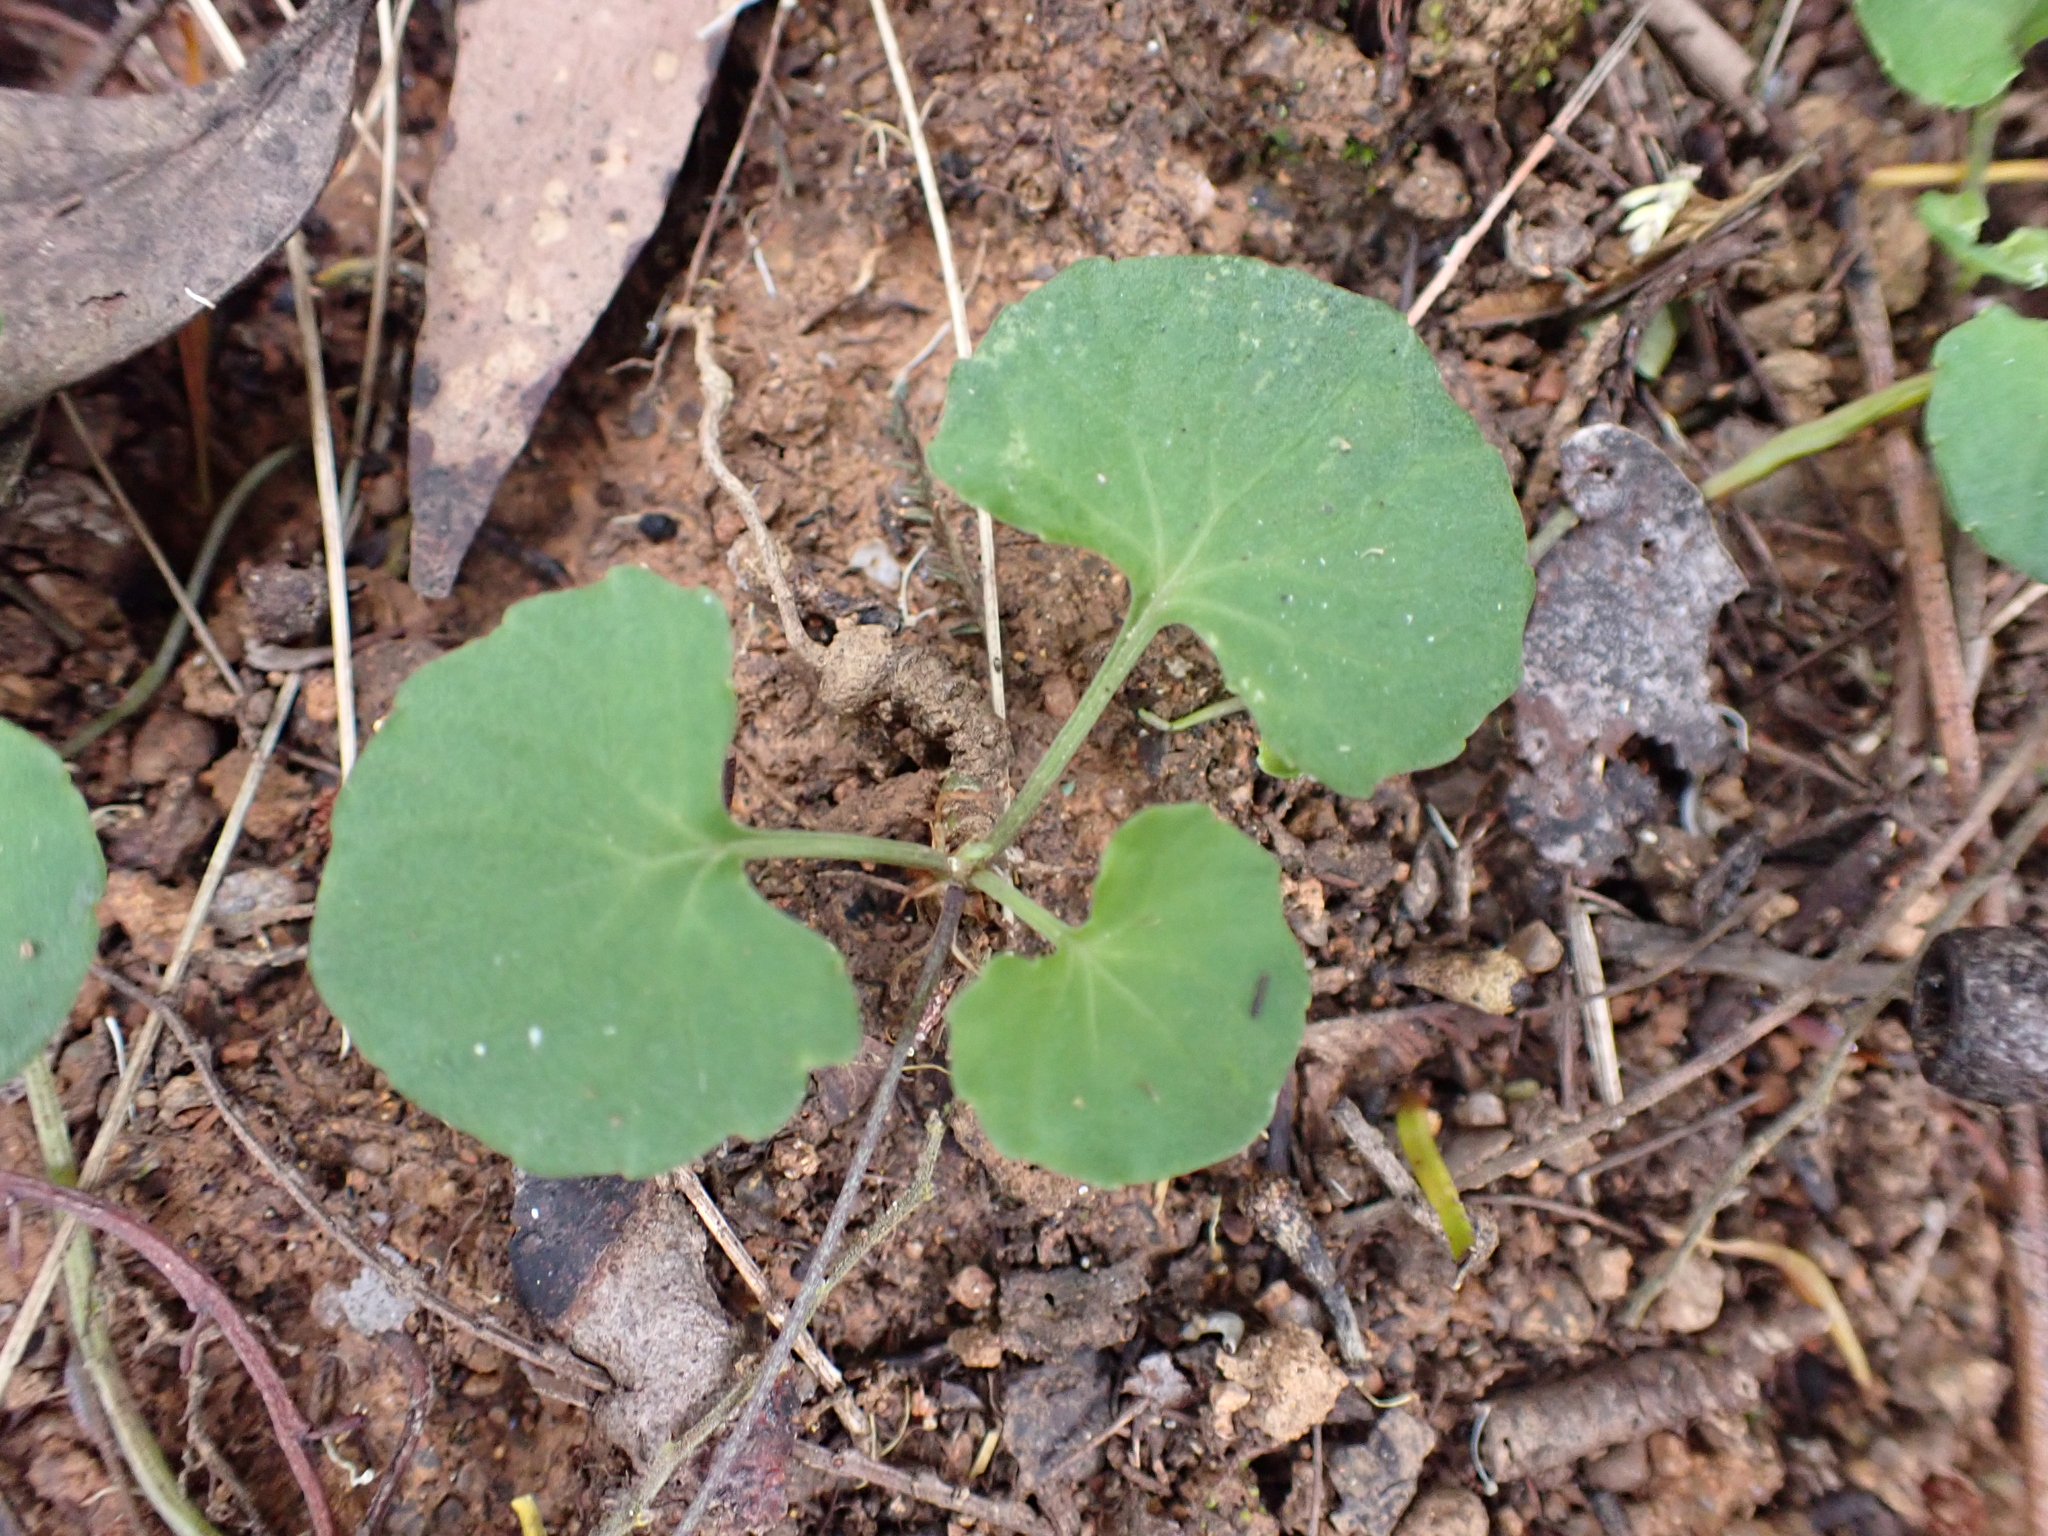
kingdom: Plantae
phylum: Tracheophyta
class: Magnoliopsida
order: Malpighiales
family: Violaceae
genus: Viola
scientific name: Viola hederacea
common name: Australian violet
